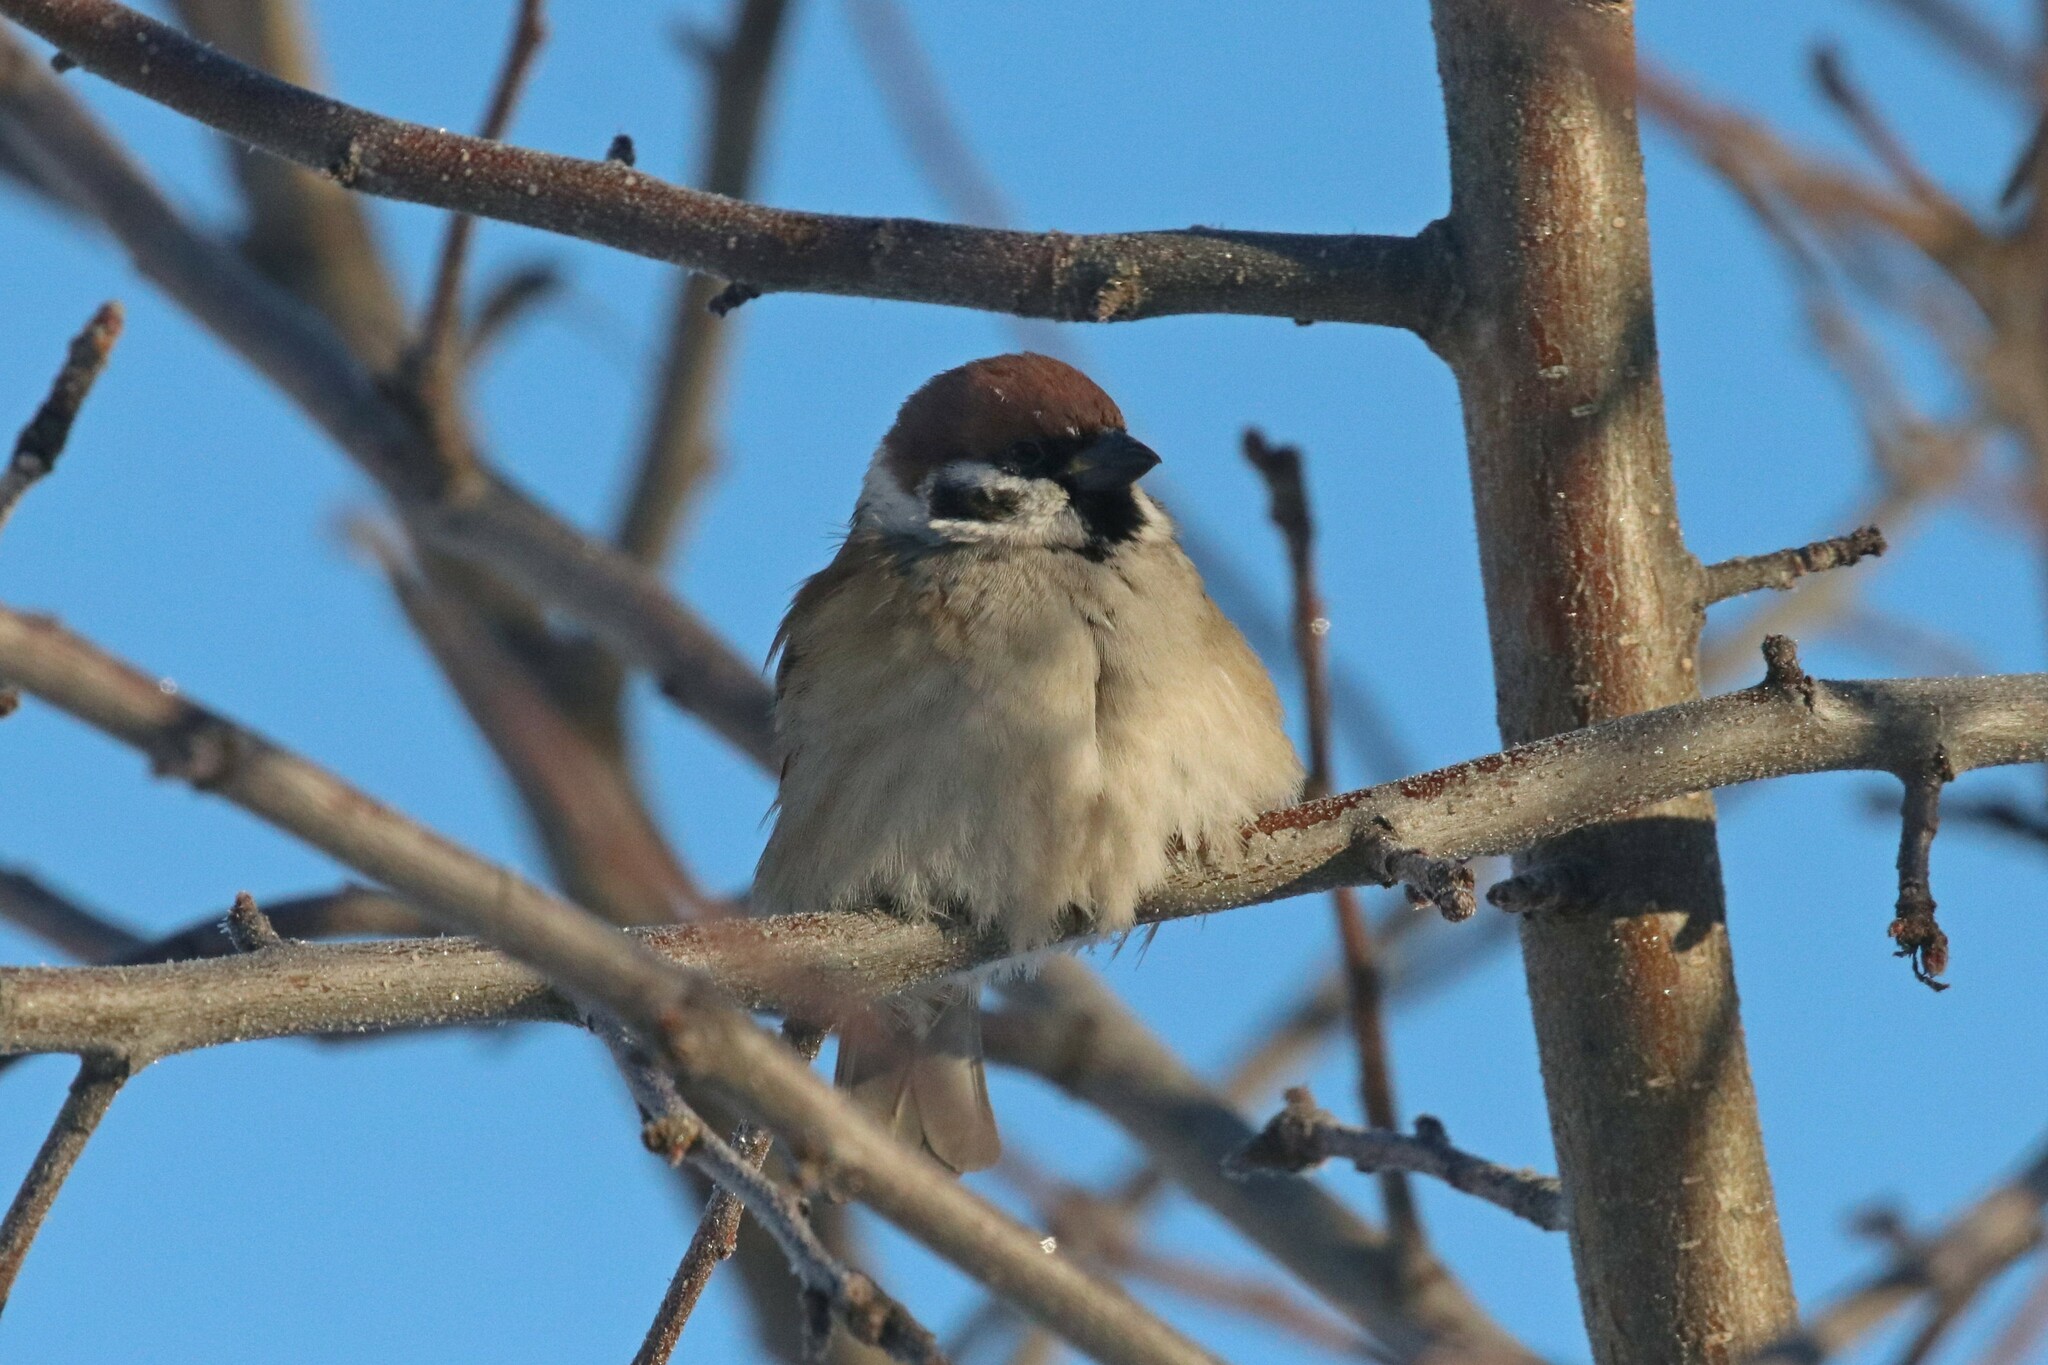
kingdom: Animalia
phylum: Chordata
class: Aves
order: Passeriformes
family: Passeridae
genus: Passer
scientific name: Passer montanus
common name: Eurasian tree sparrow
